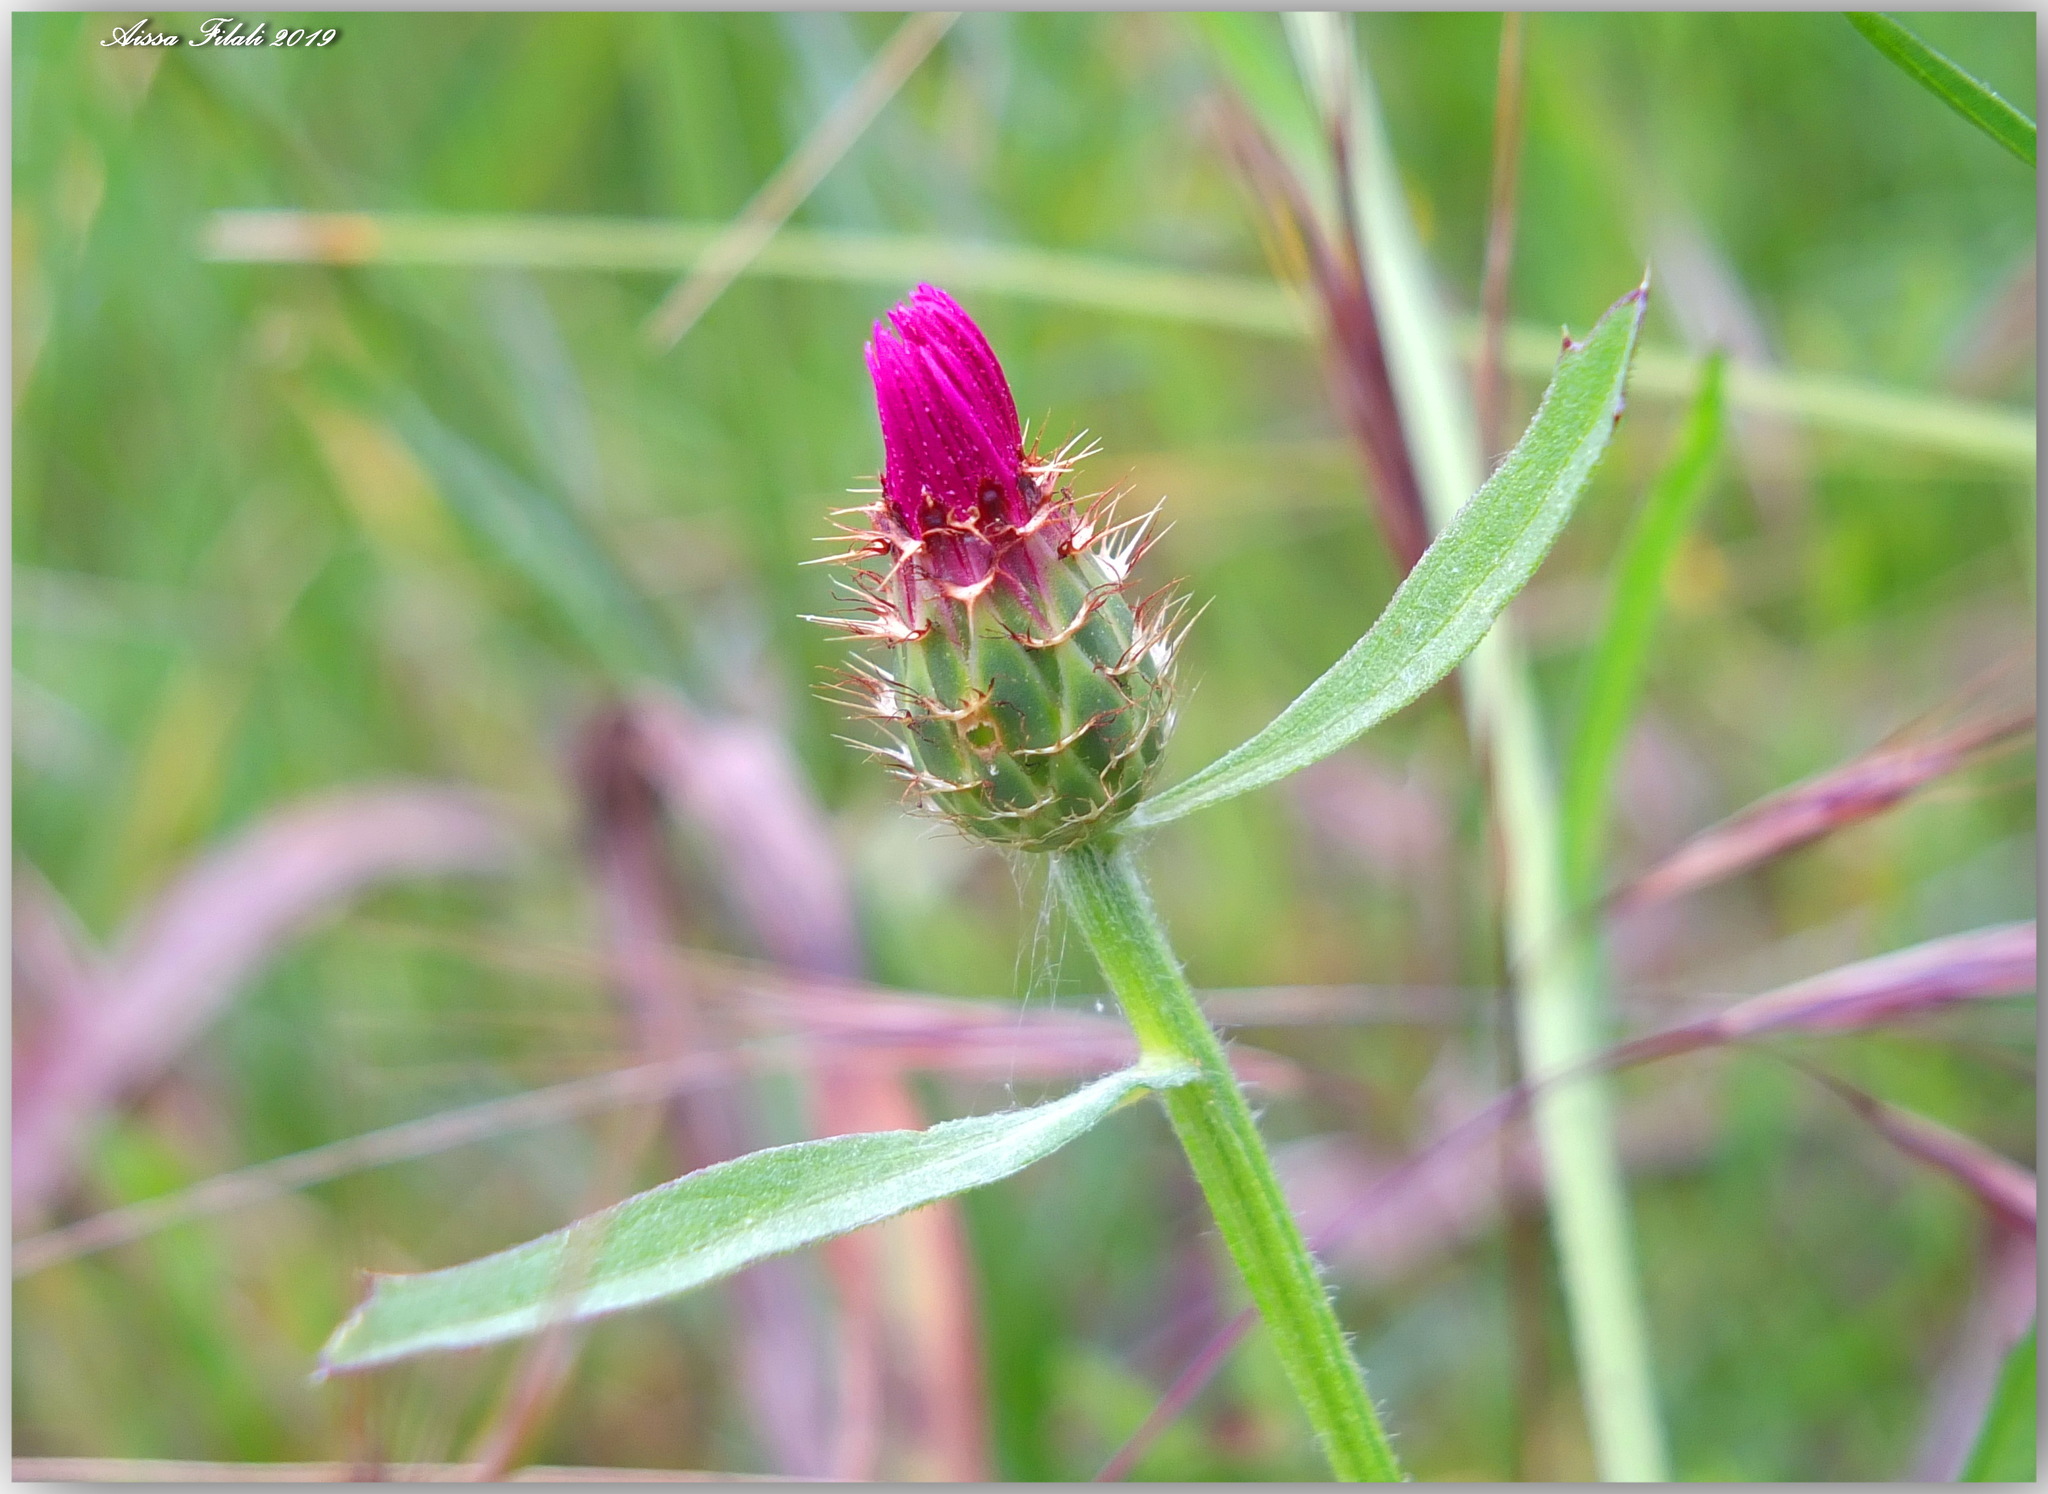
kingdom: Plantae
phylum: Tracheophyta
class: Magnoliopsida
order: Asterales
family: Asteraceae
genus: Centaurea
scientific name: Centaurea napifolia
